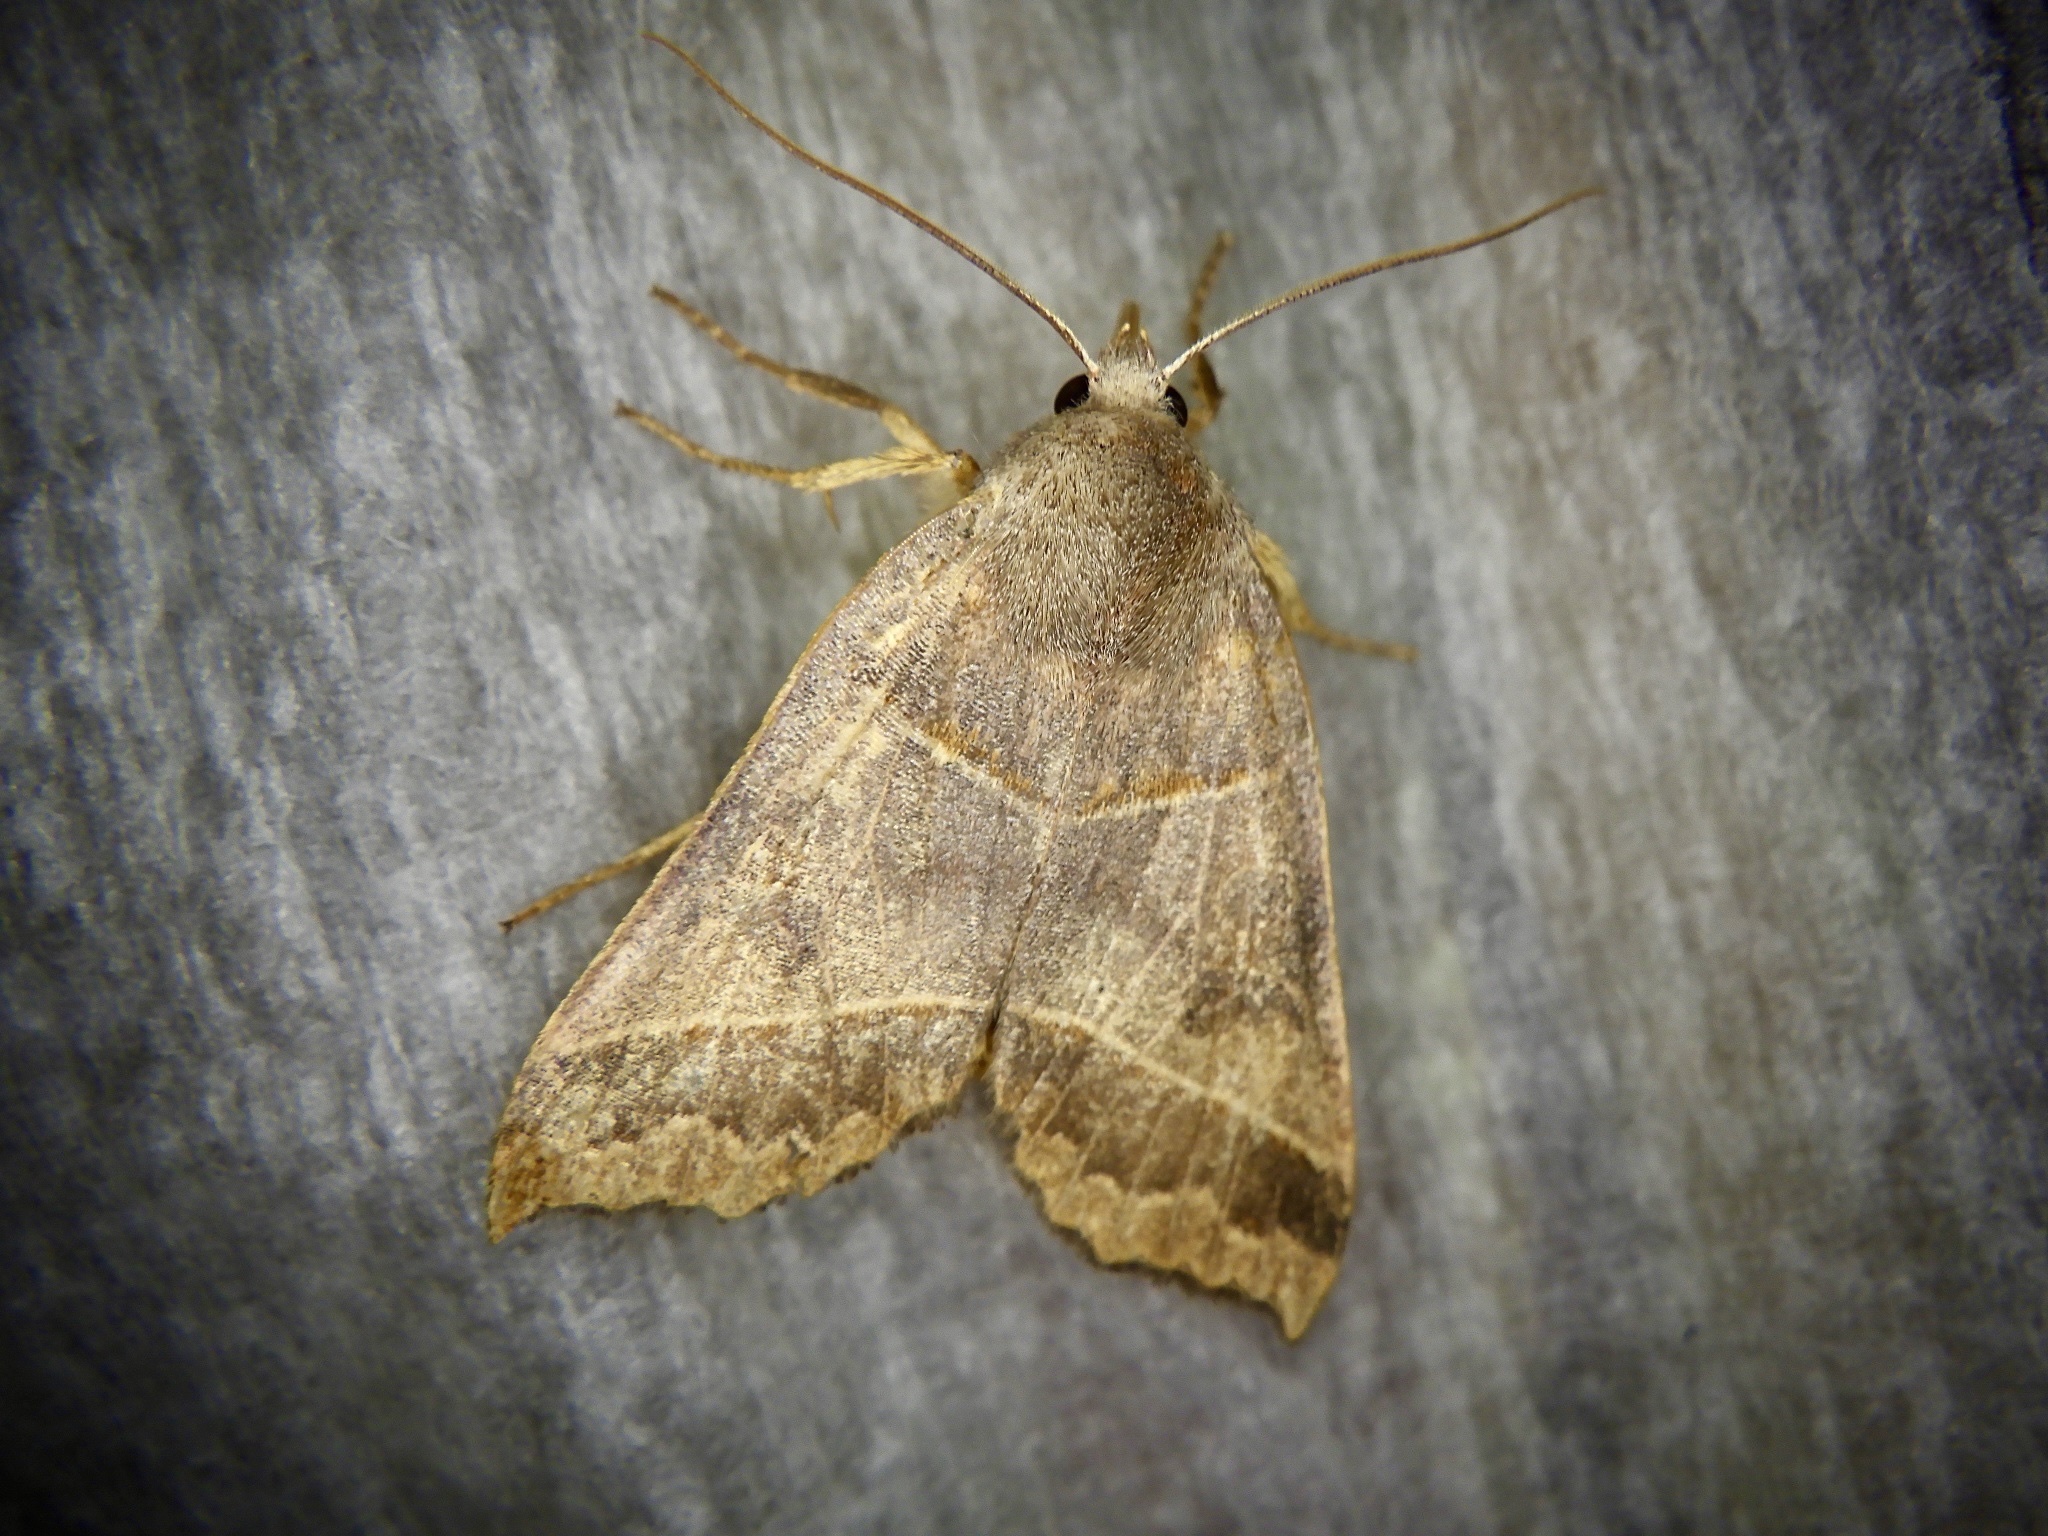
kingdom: Animalia
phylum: Arthropoda
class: Insecta
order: Lepidoptera
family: Noctuidae
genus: Telorta
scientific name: Telorta acuminata
